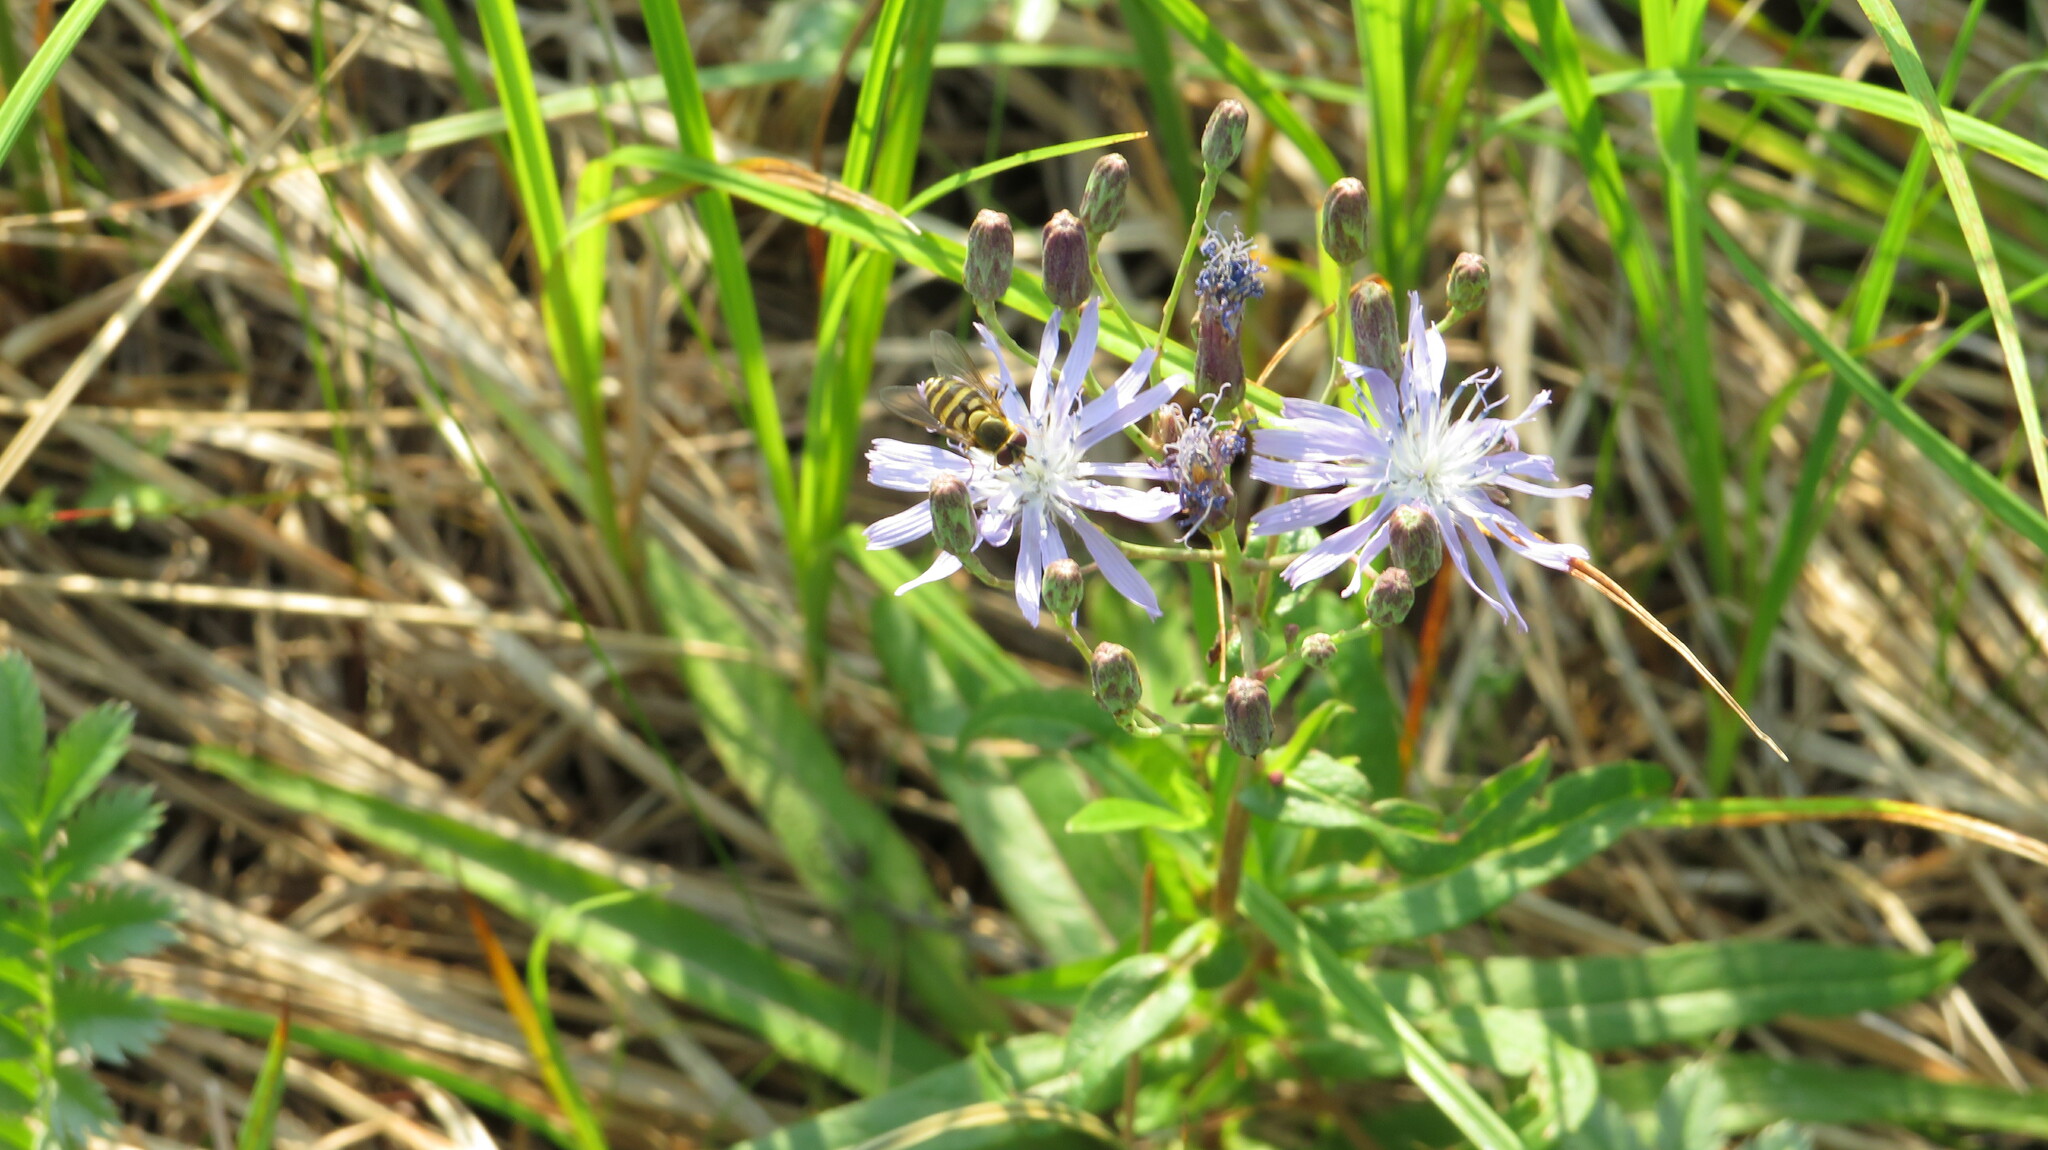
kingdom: Plantae
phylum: Tracheophyta
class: Magnoliopsida
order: Asterales
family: Asteraceae
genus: Lactuca
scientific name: Lactuca sibirica
